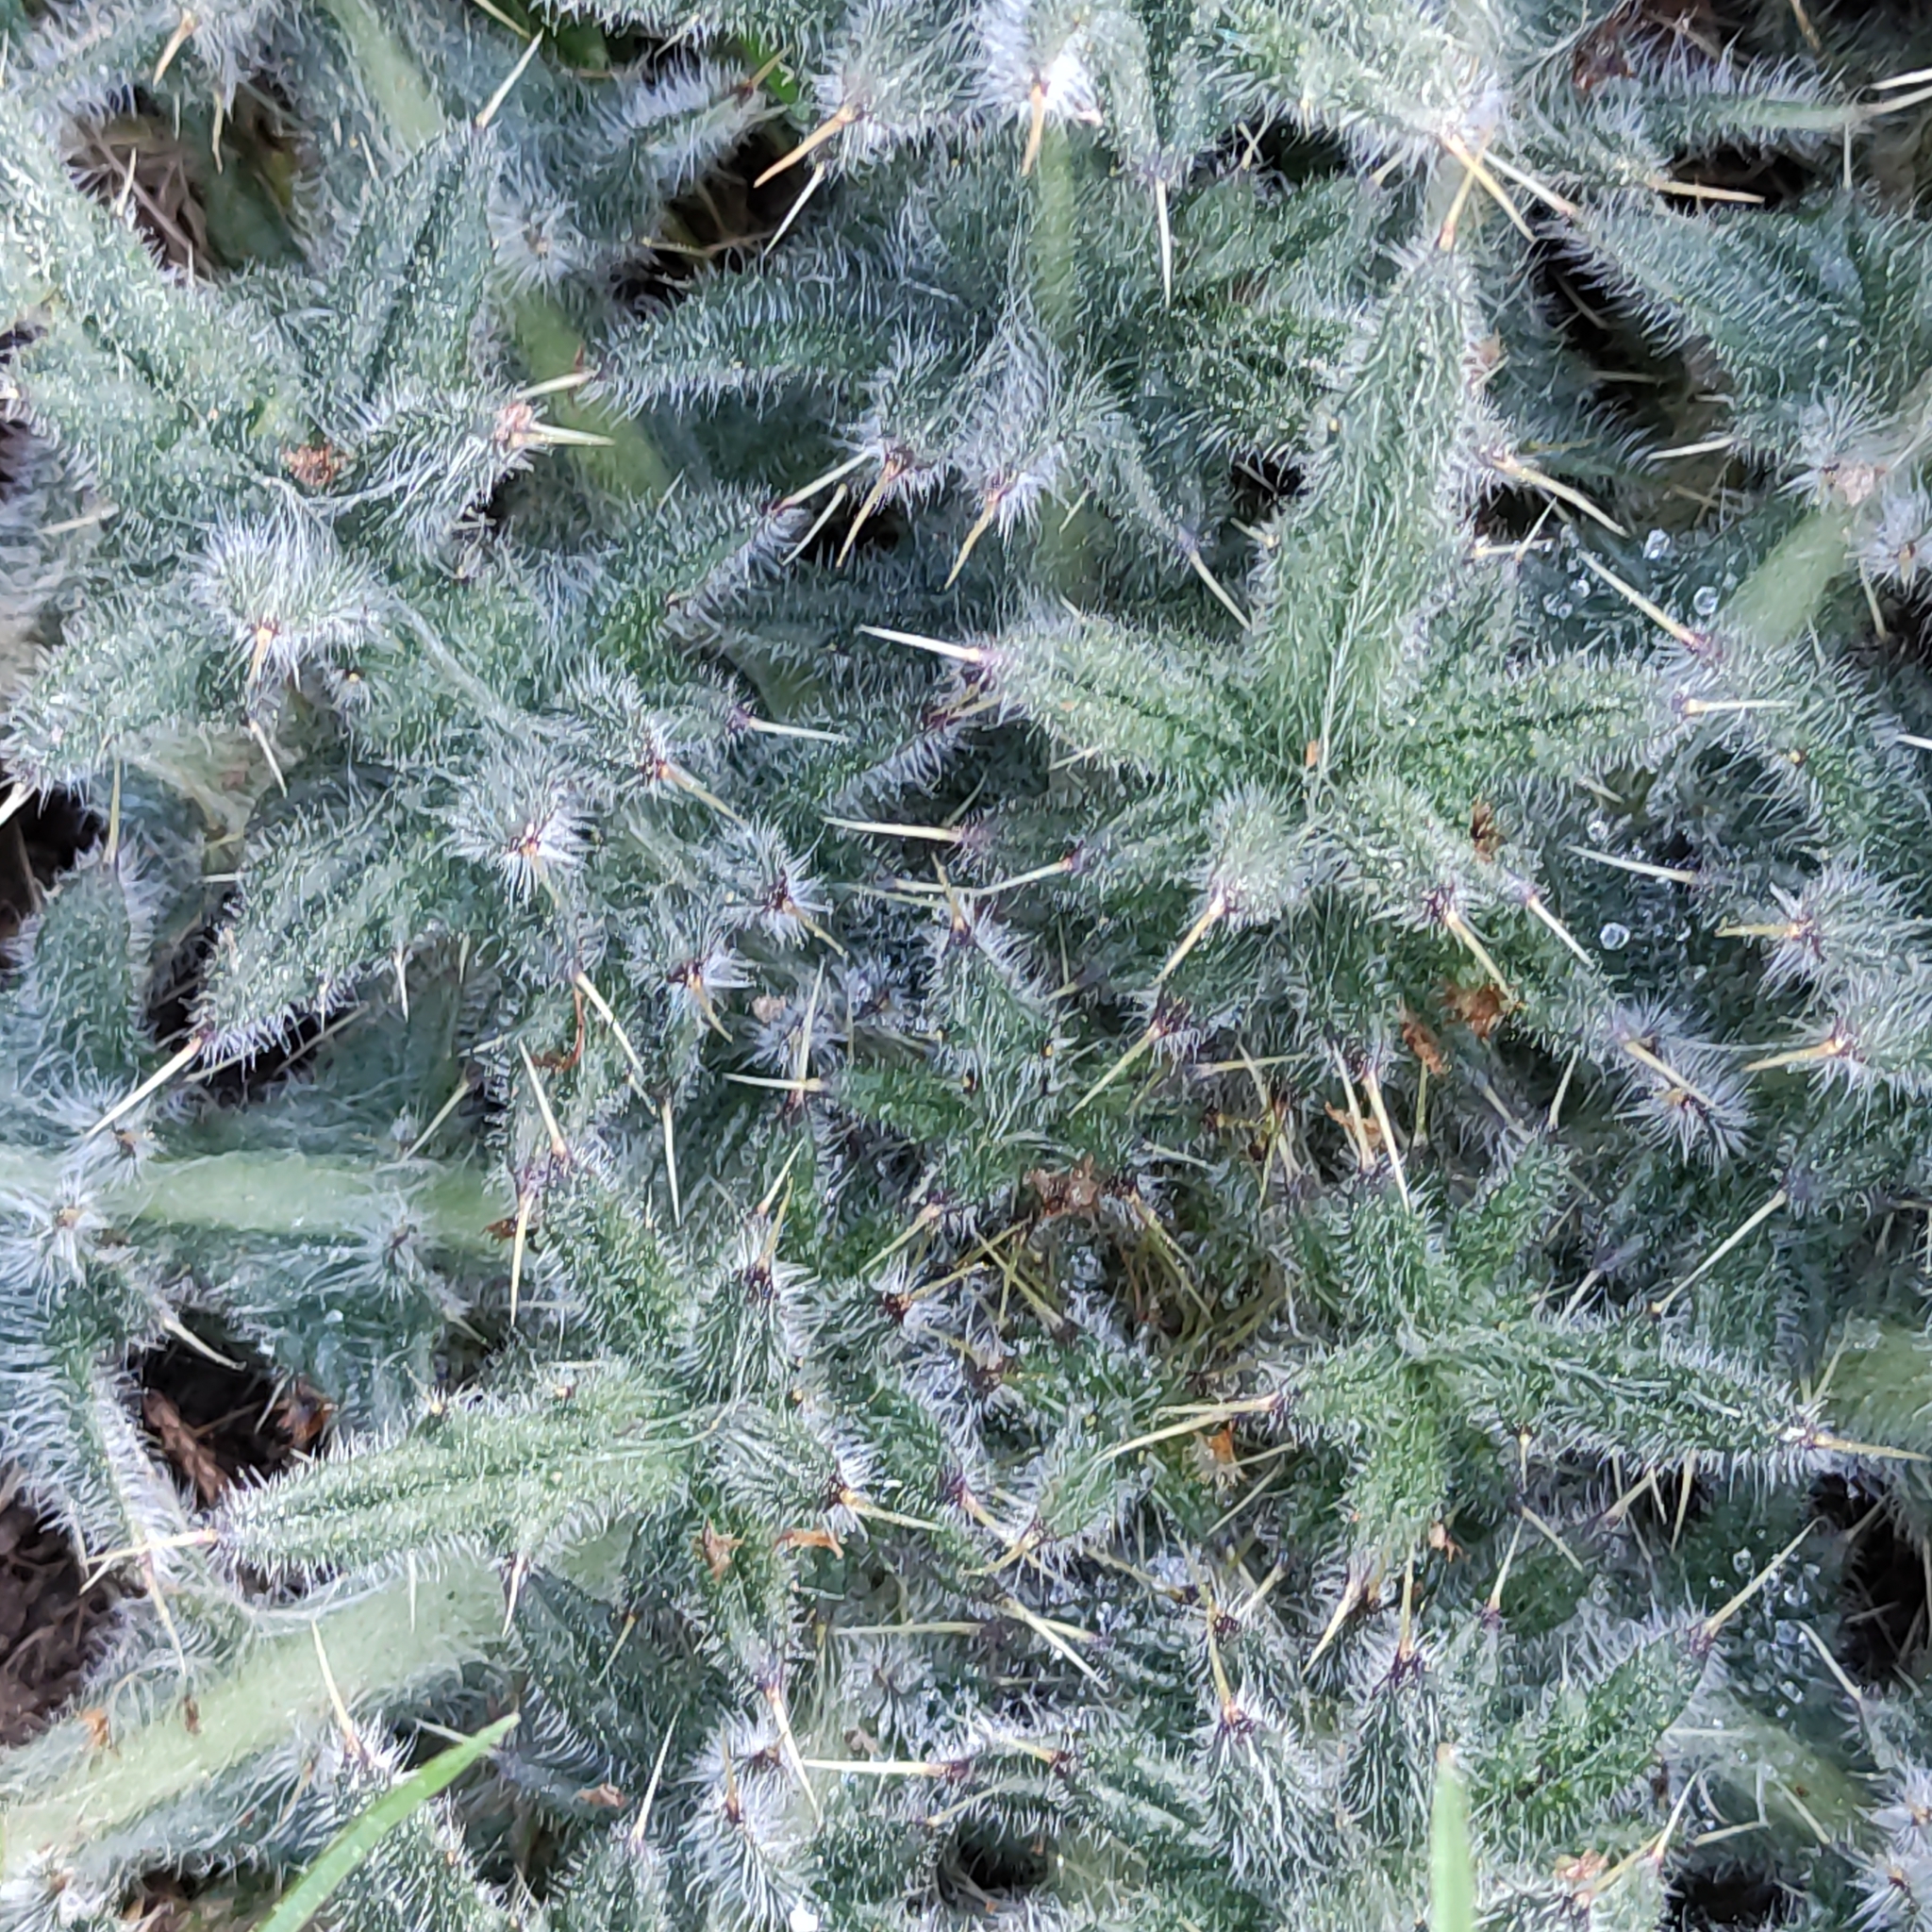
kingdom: Plantae
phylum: Tracheophyta
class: Magnoliopsida
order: Asterales
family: Asteraceae
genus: Cirsium
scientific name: Cirsium vulgare
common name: Bull thistle
